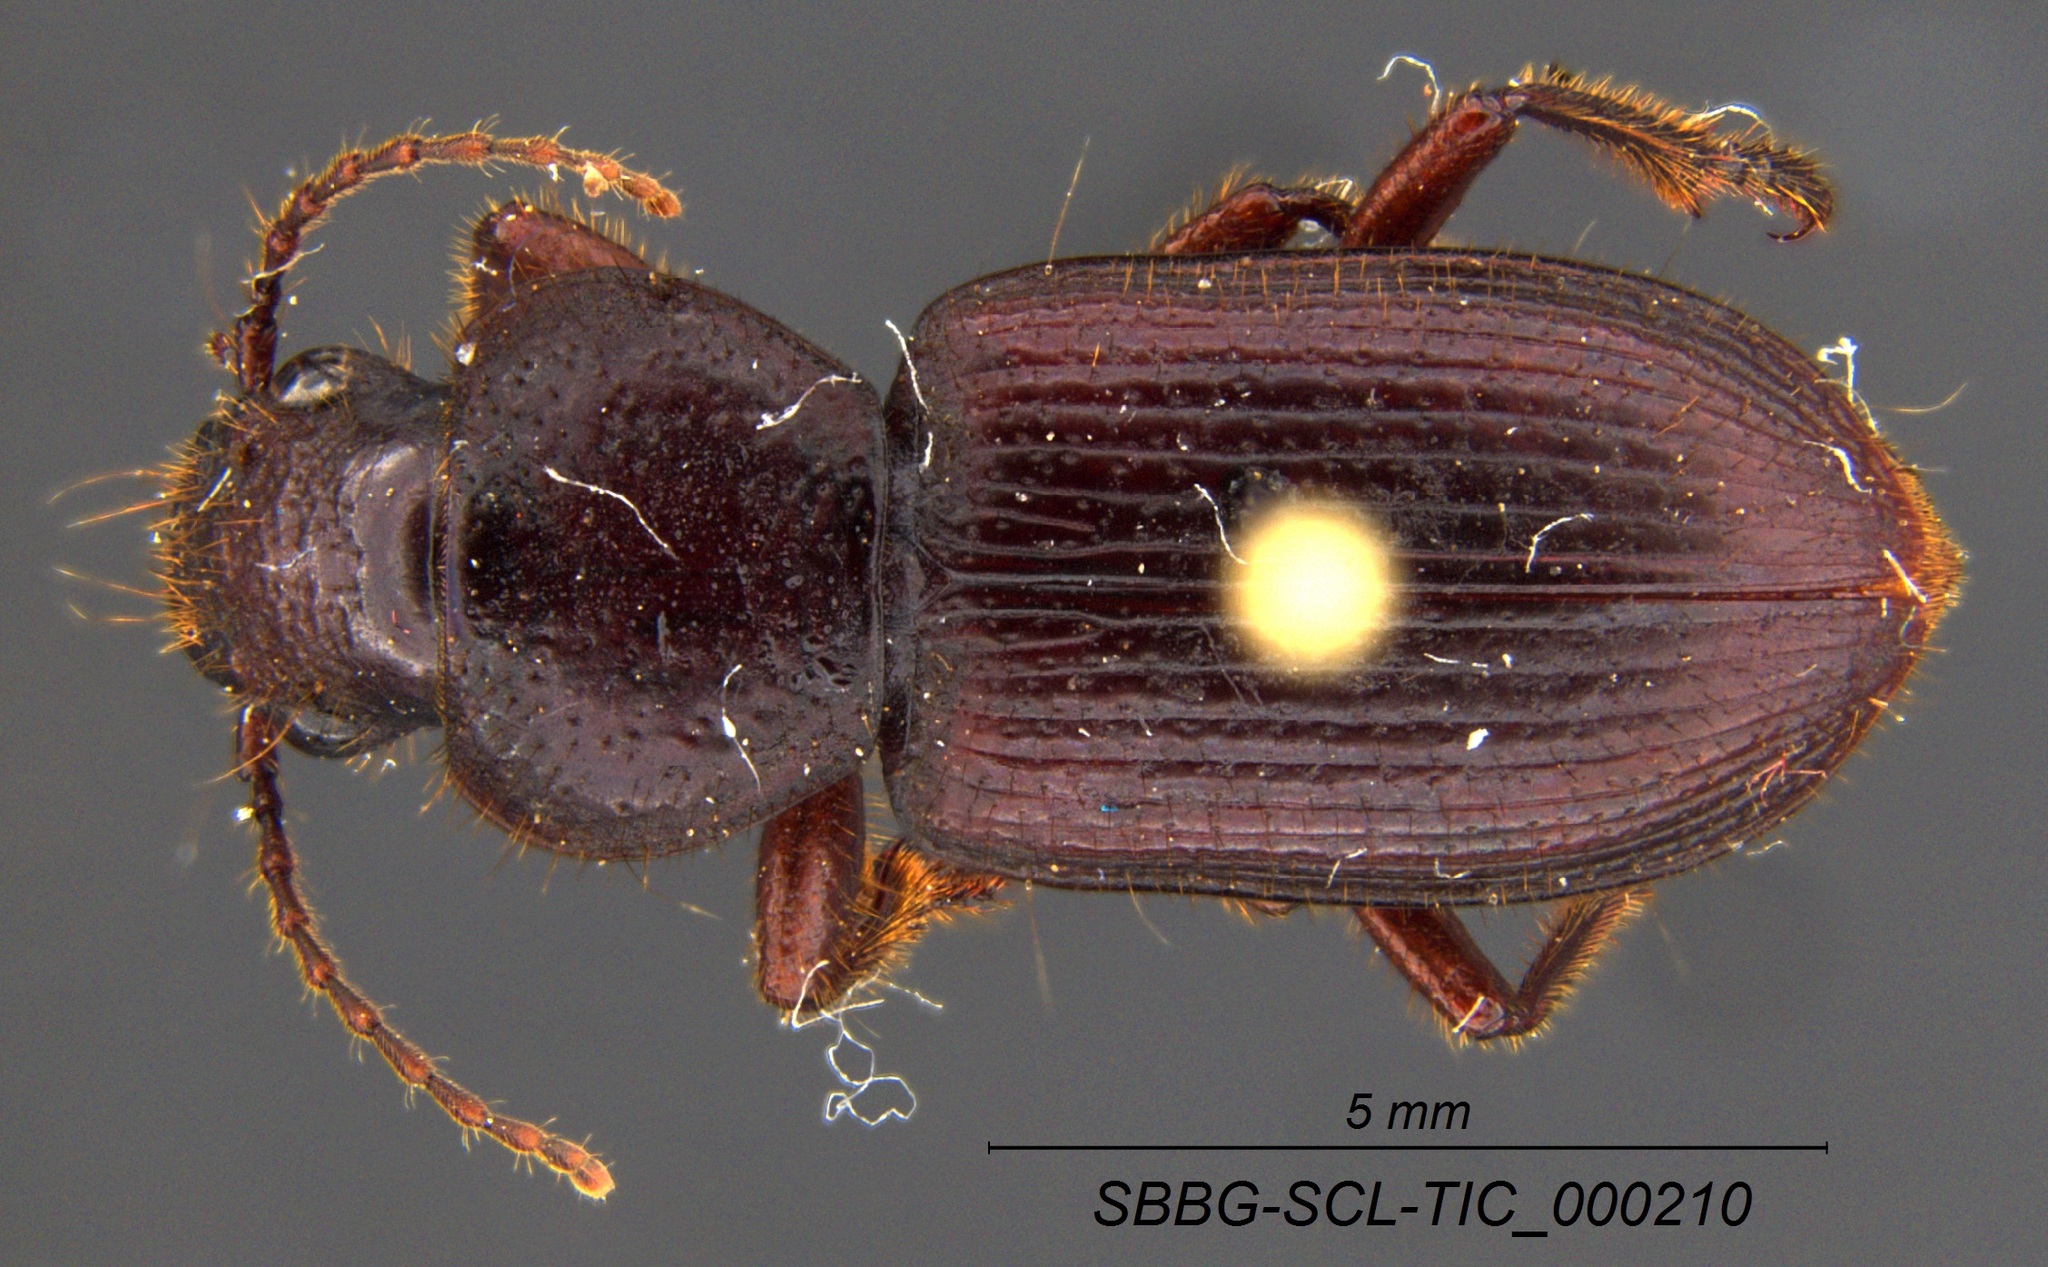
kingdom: Animalia
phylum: Arthropoda
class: Insecta
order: Coleoptera
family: Carabidae
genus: Dicheirus
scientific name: Dicheirus dilatatus
